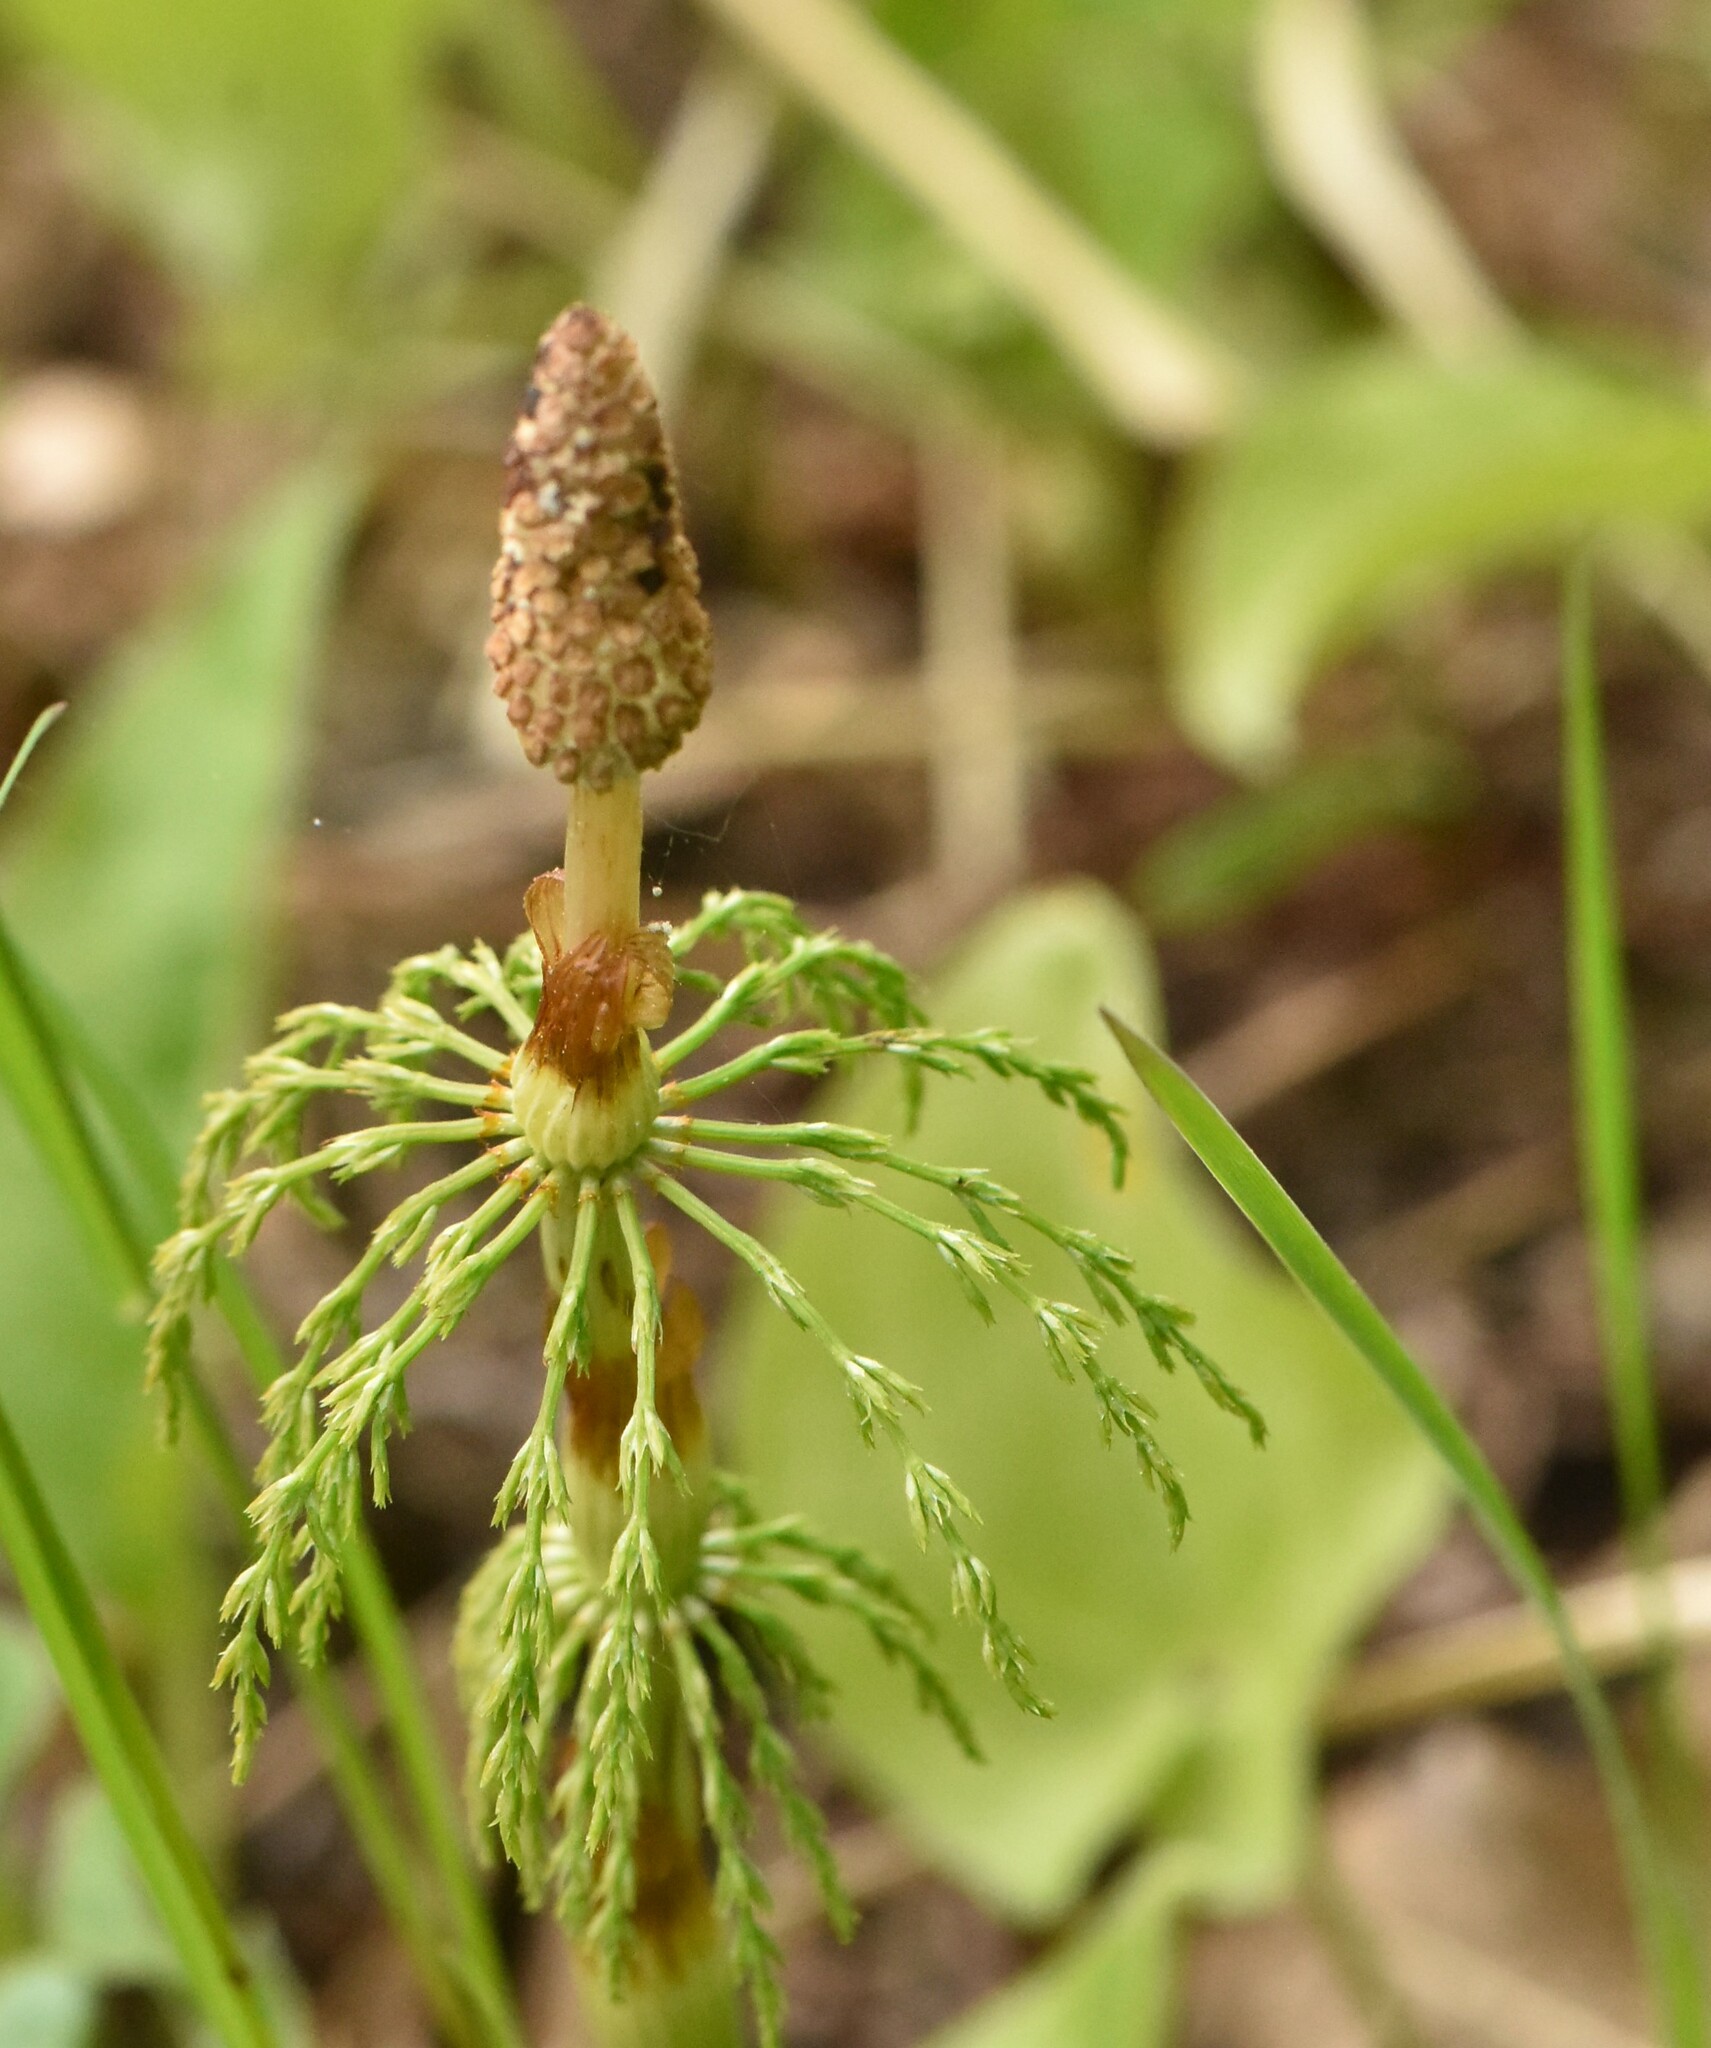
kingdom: Plantae
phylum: Tracheophyta
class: Polypodiopsida
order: Equisetales
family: Equisetaceae
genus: Equisetum
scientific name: Equisetum sylvaticum
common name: Wood horsetail
